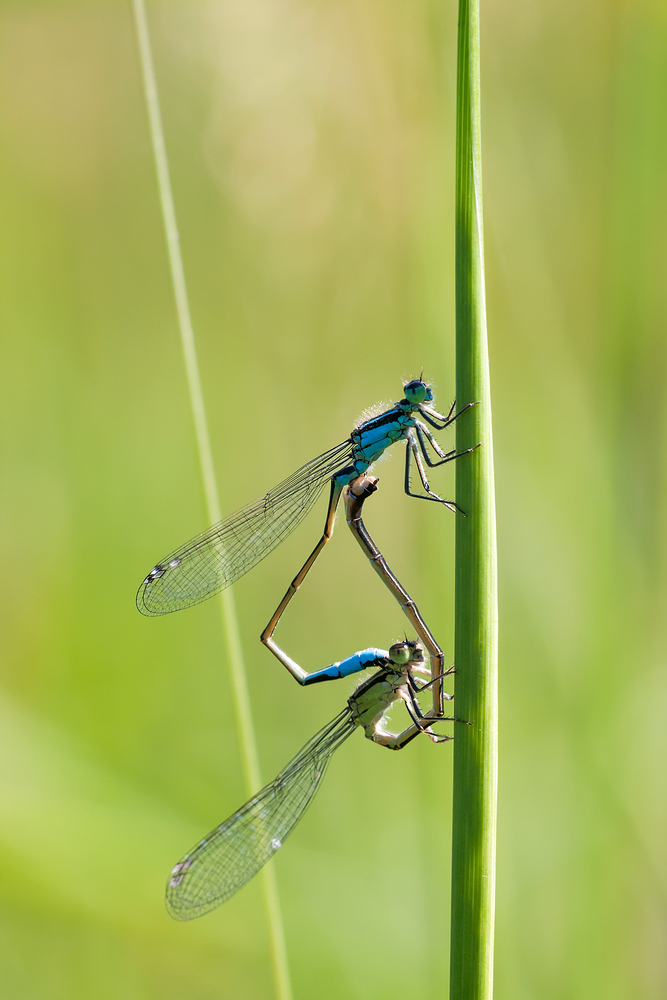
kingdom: Animalia
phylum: Arthropoda
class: Insecta
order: Odonata
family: Coenagrionidae
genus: Ischnura
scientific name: Ischnura elegans
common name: Blue-tailed damselfly
